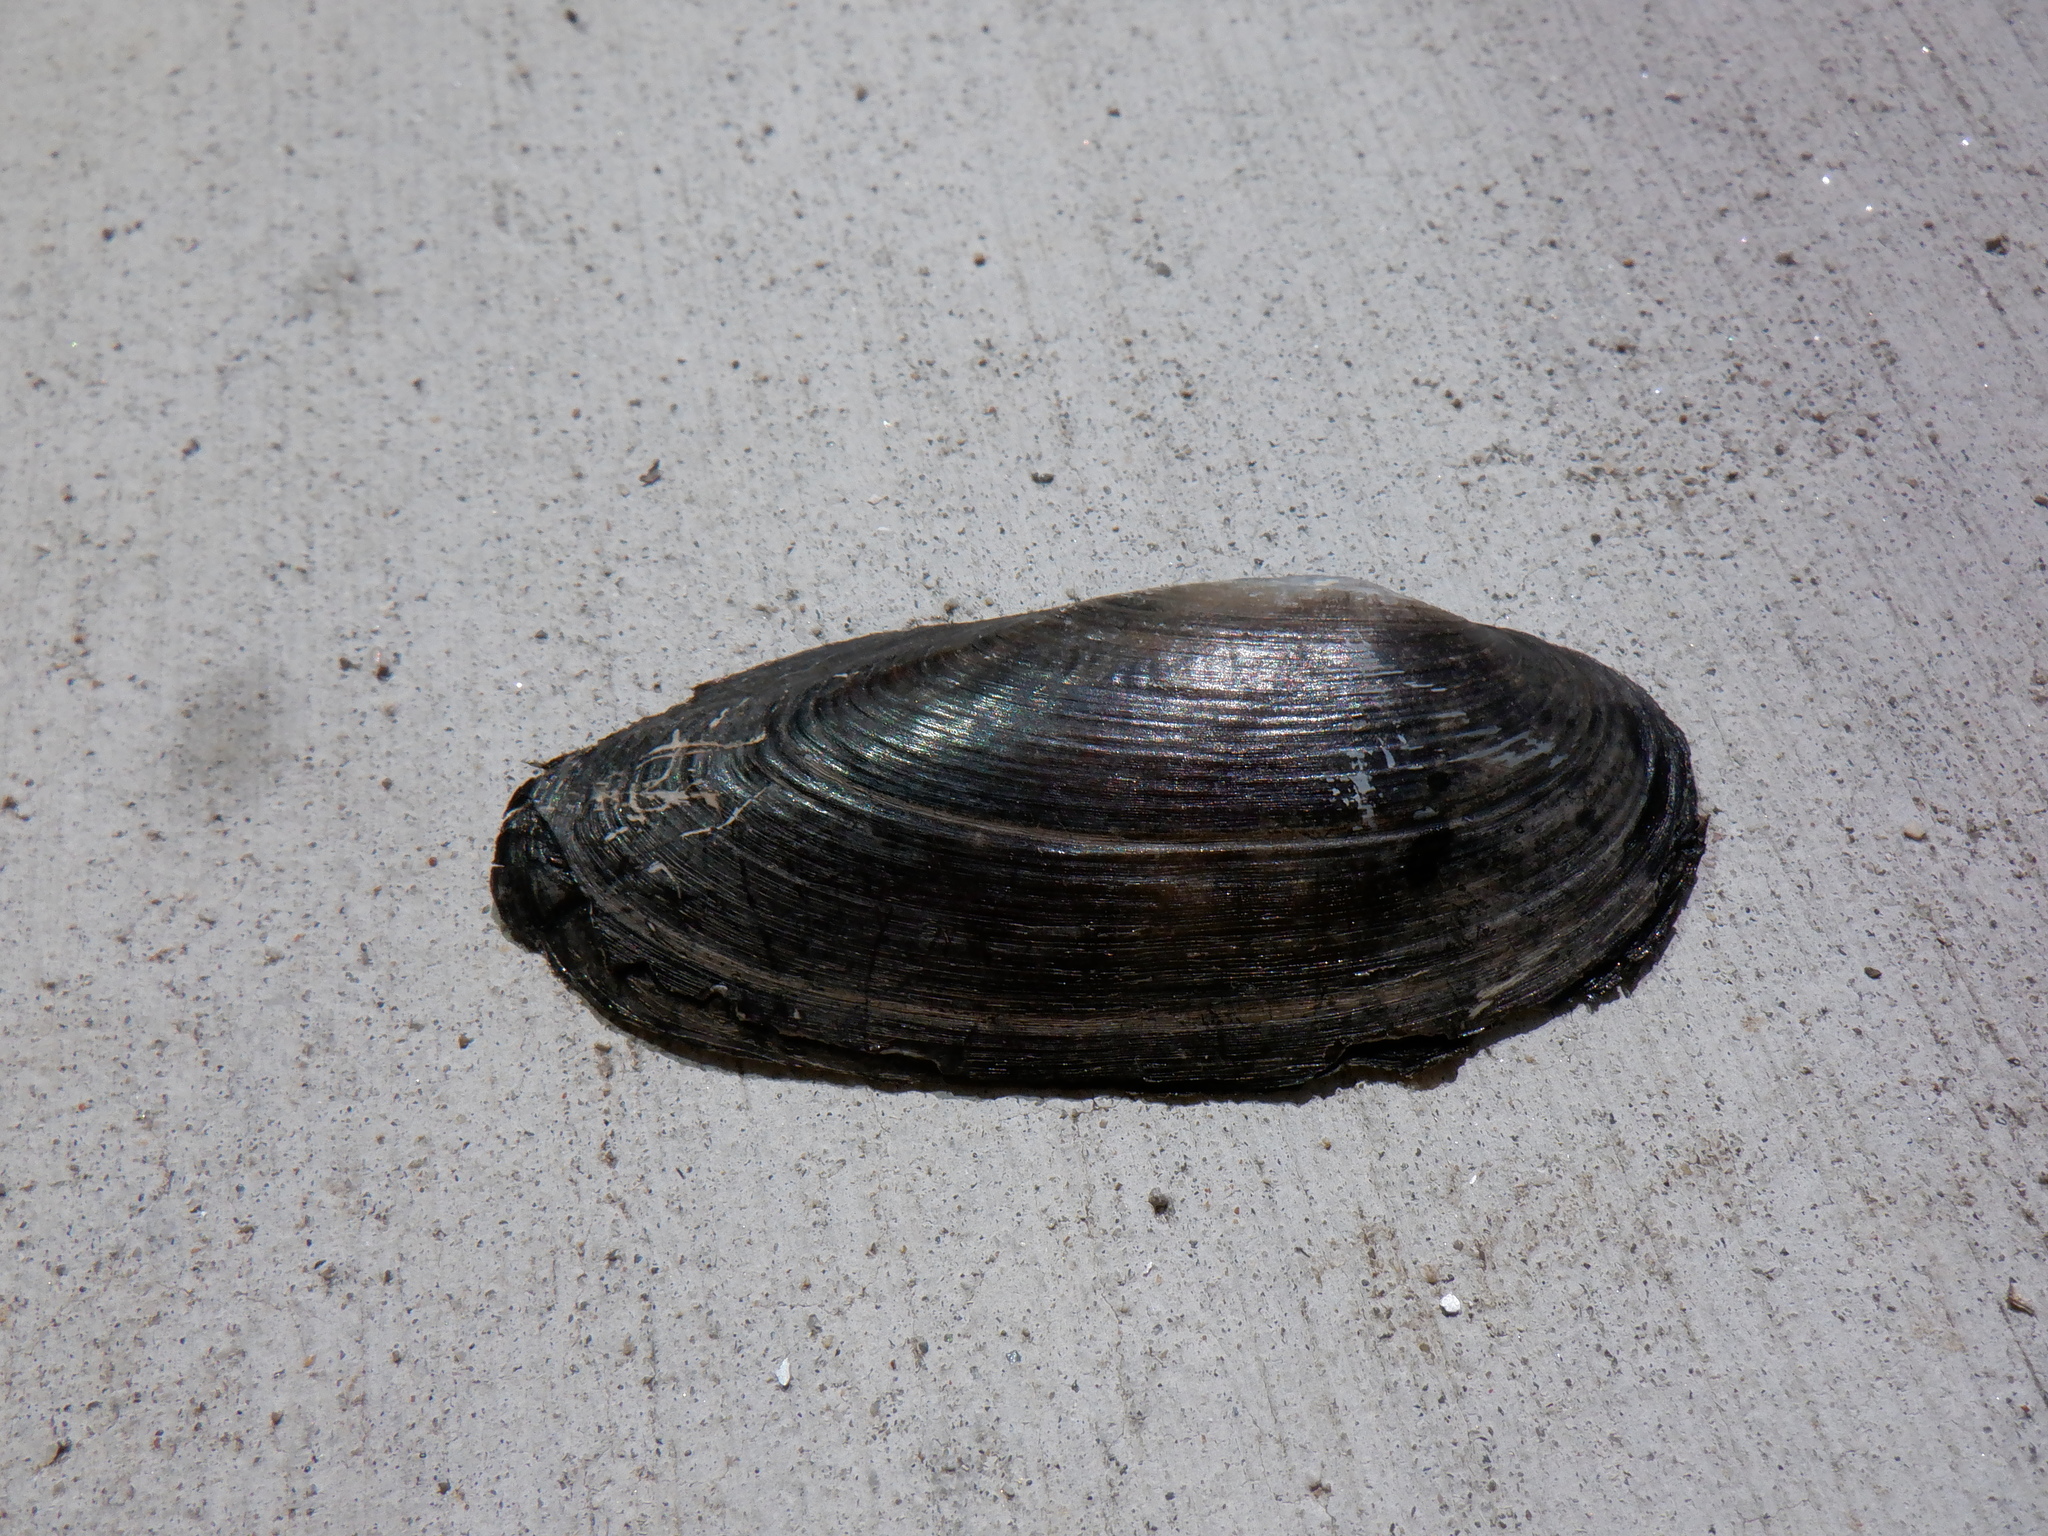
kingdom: Animalia
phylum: Mollusca
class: Bivalvia
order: Unionida
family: Unionidae
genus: Eurynia
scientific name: Eurynia dilatata
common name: Spike
